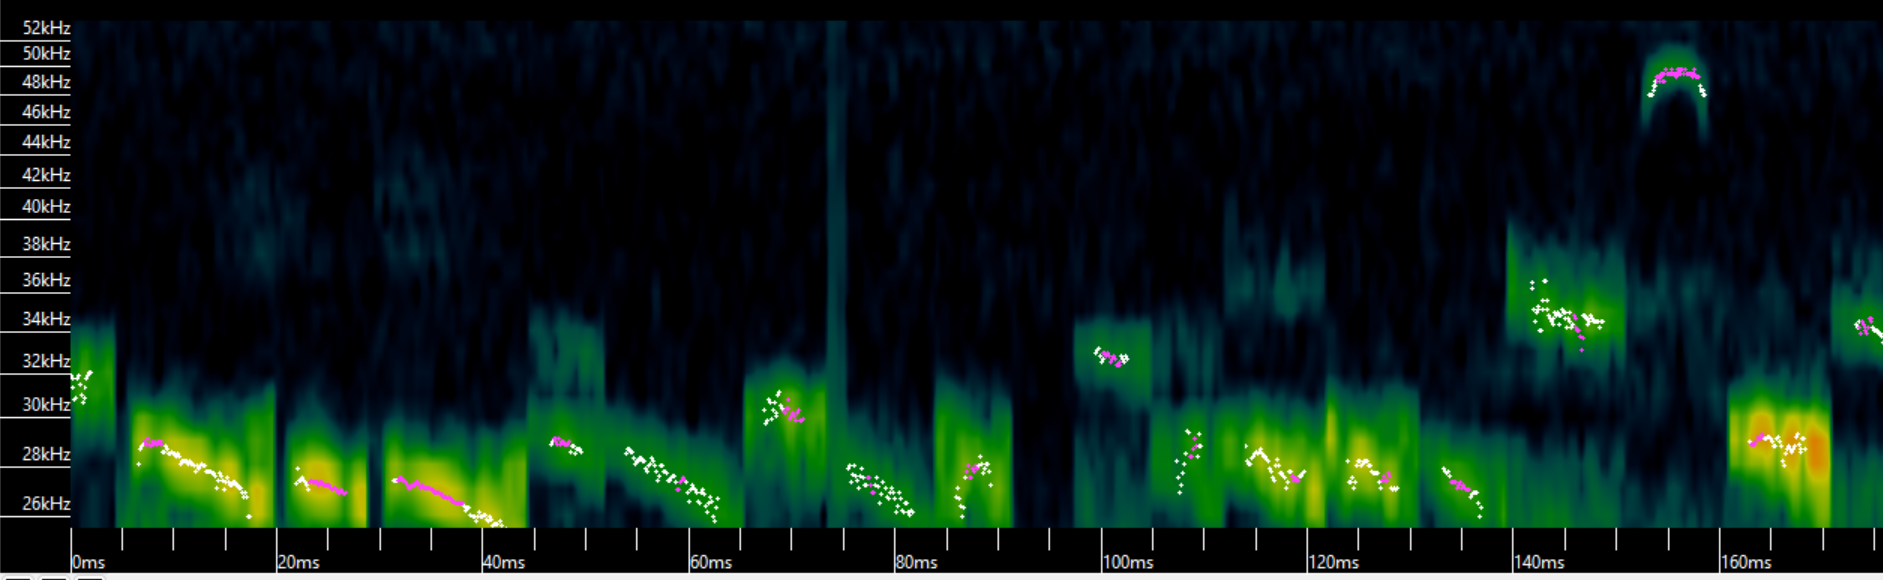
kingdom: Animalia
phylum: Chordata
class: Mammalia
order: Chiroptera
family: Molossidae
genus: Molossus
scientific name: Molossus rufus
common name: Black mastiff bat
